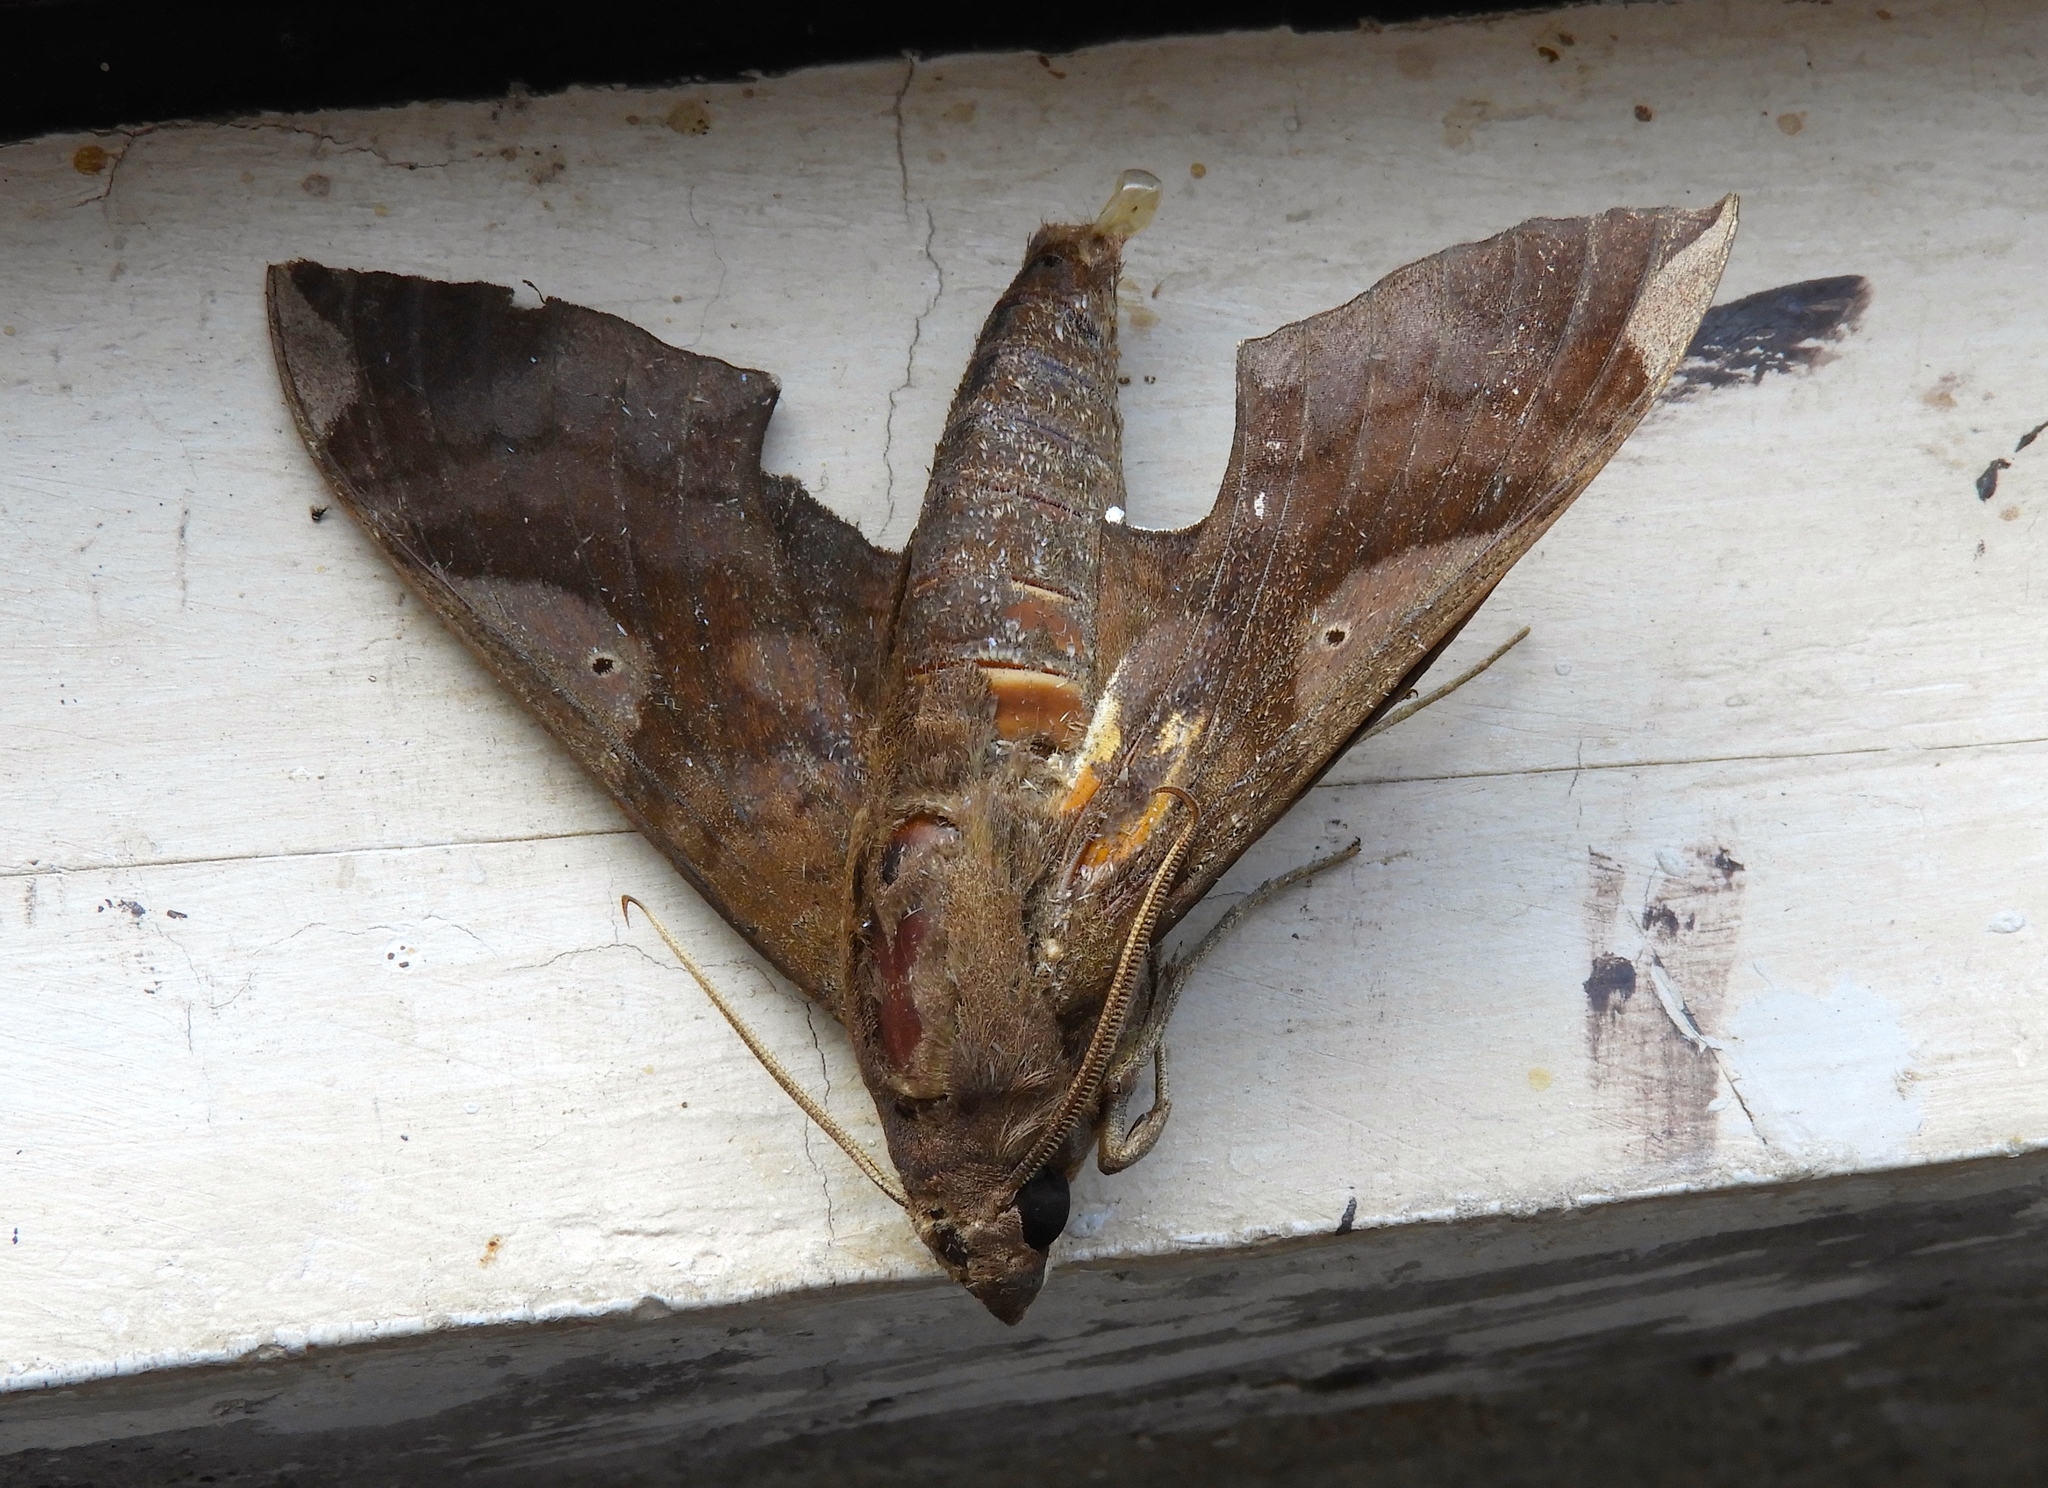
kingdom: Animalia
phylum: Arthropoda
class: Insecta
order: Lepidoptera
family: Sphingidae
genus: Pachylia
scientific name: Pachylia syces
